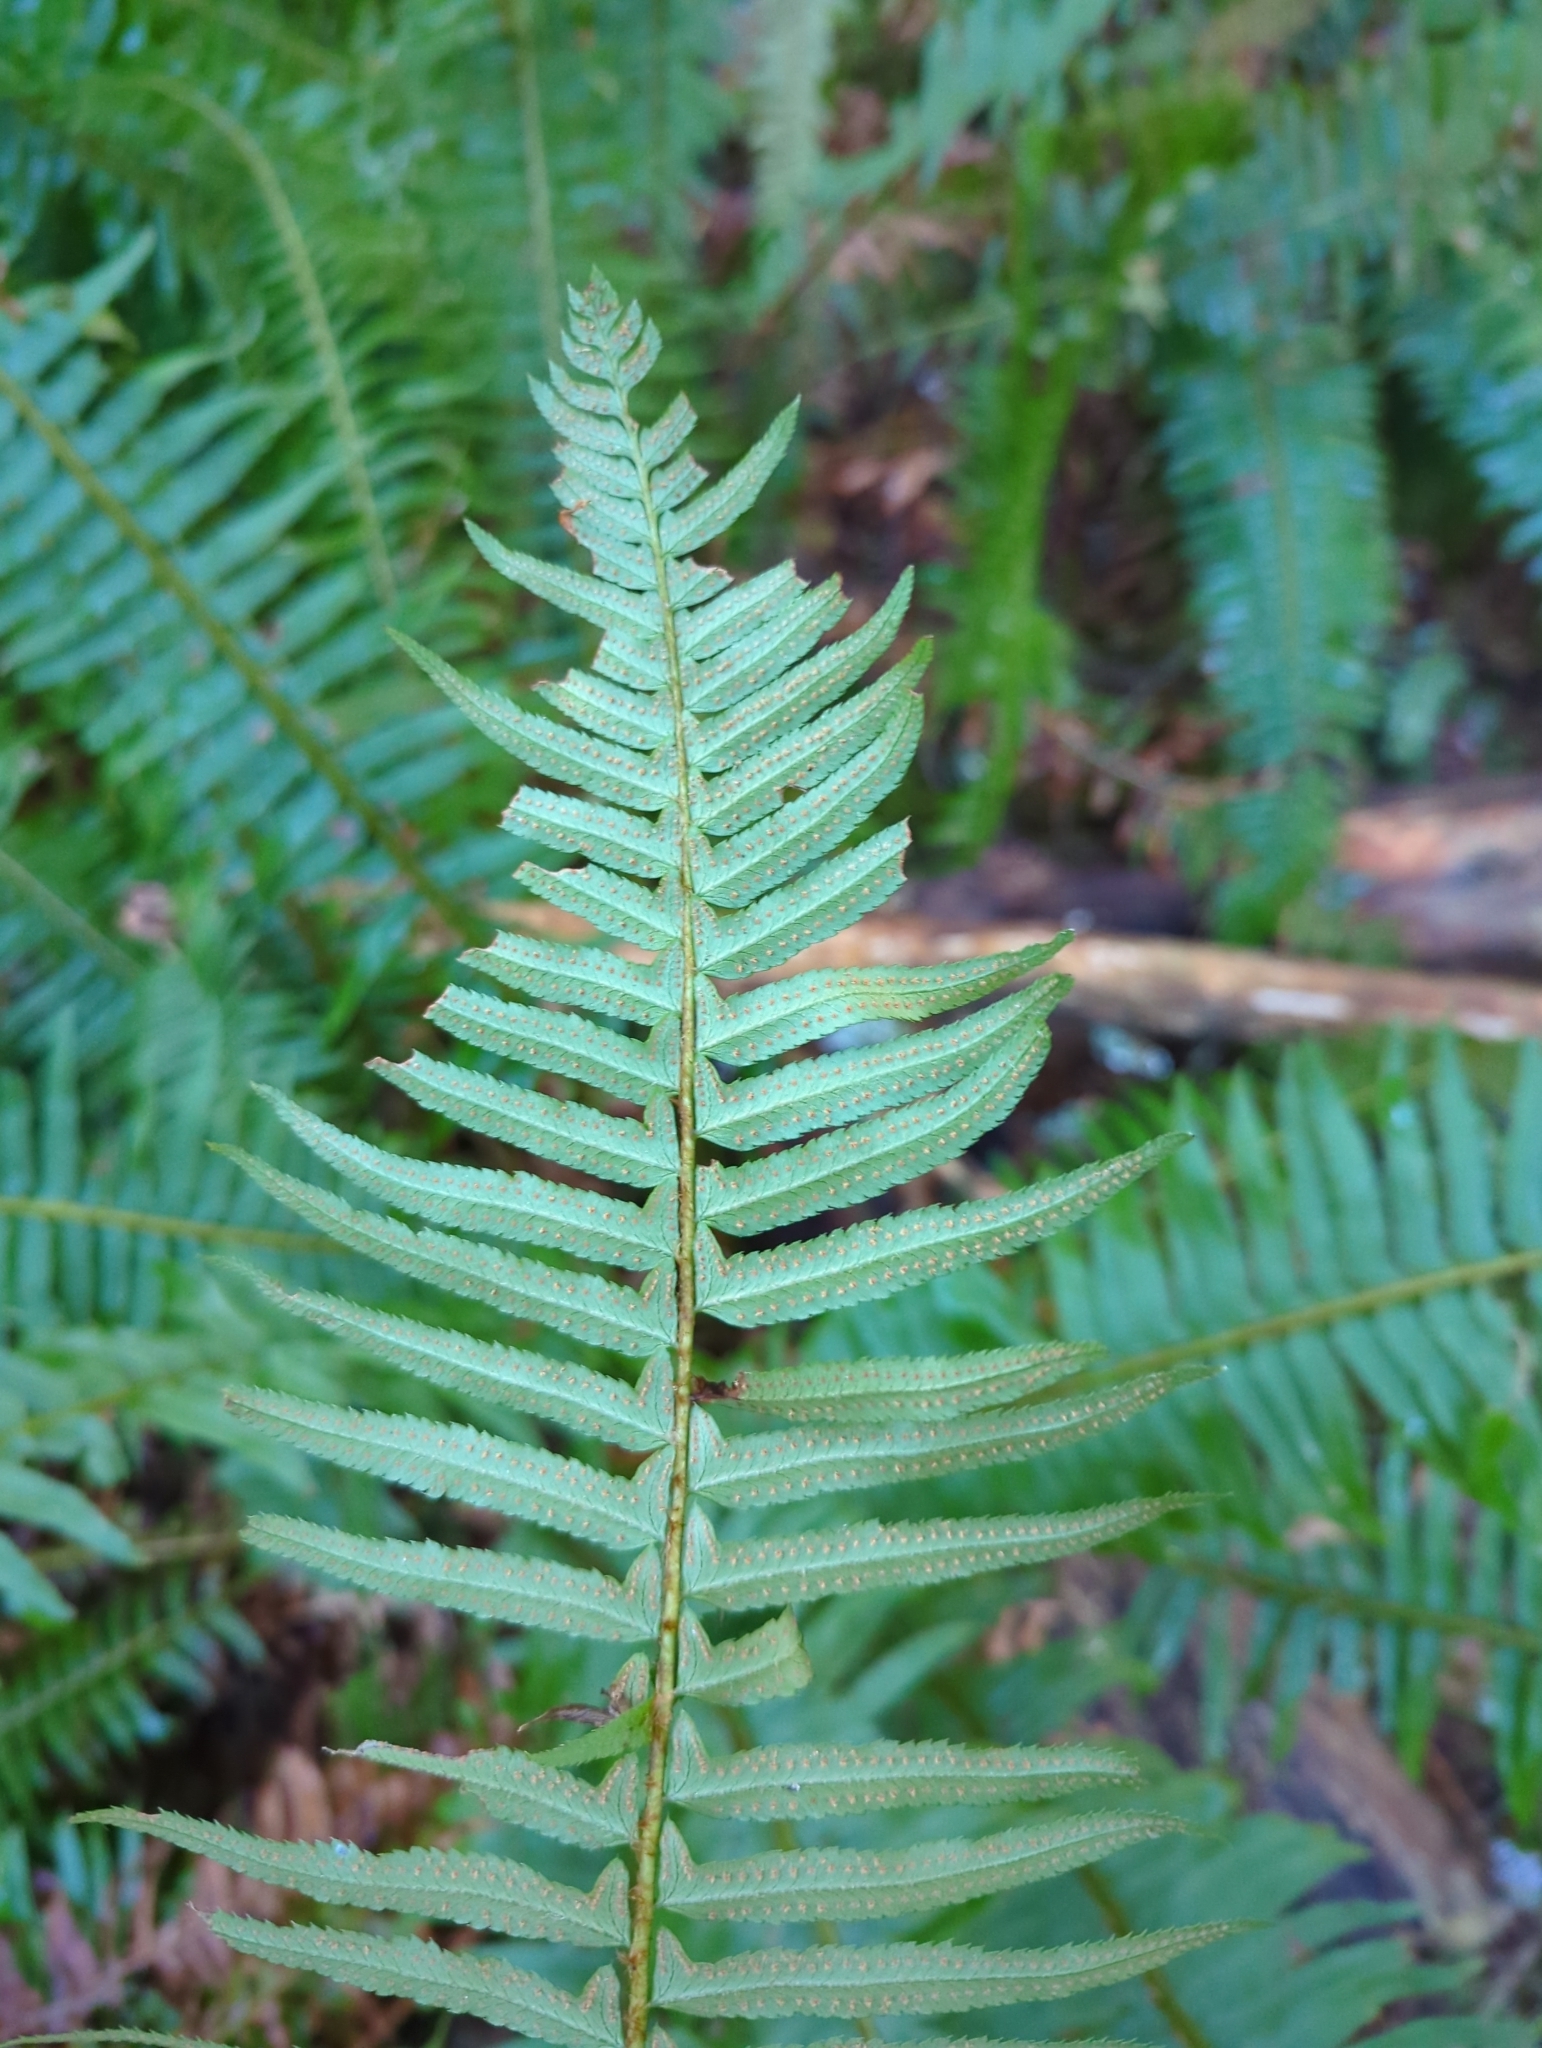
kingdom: Plantae
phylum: Tracheophyta
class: Polypodiopsida
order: Polypodiales
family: Dryopteridaceae
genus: Polystichum
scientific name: Polystichum munitum
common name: Western sword-fern
